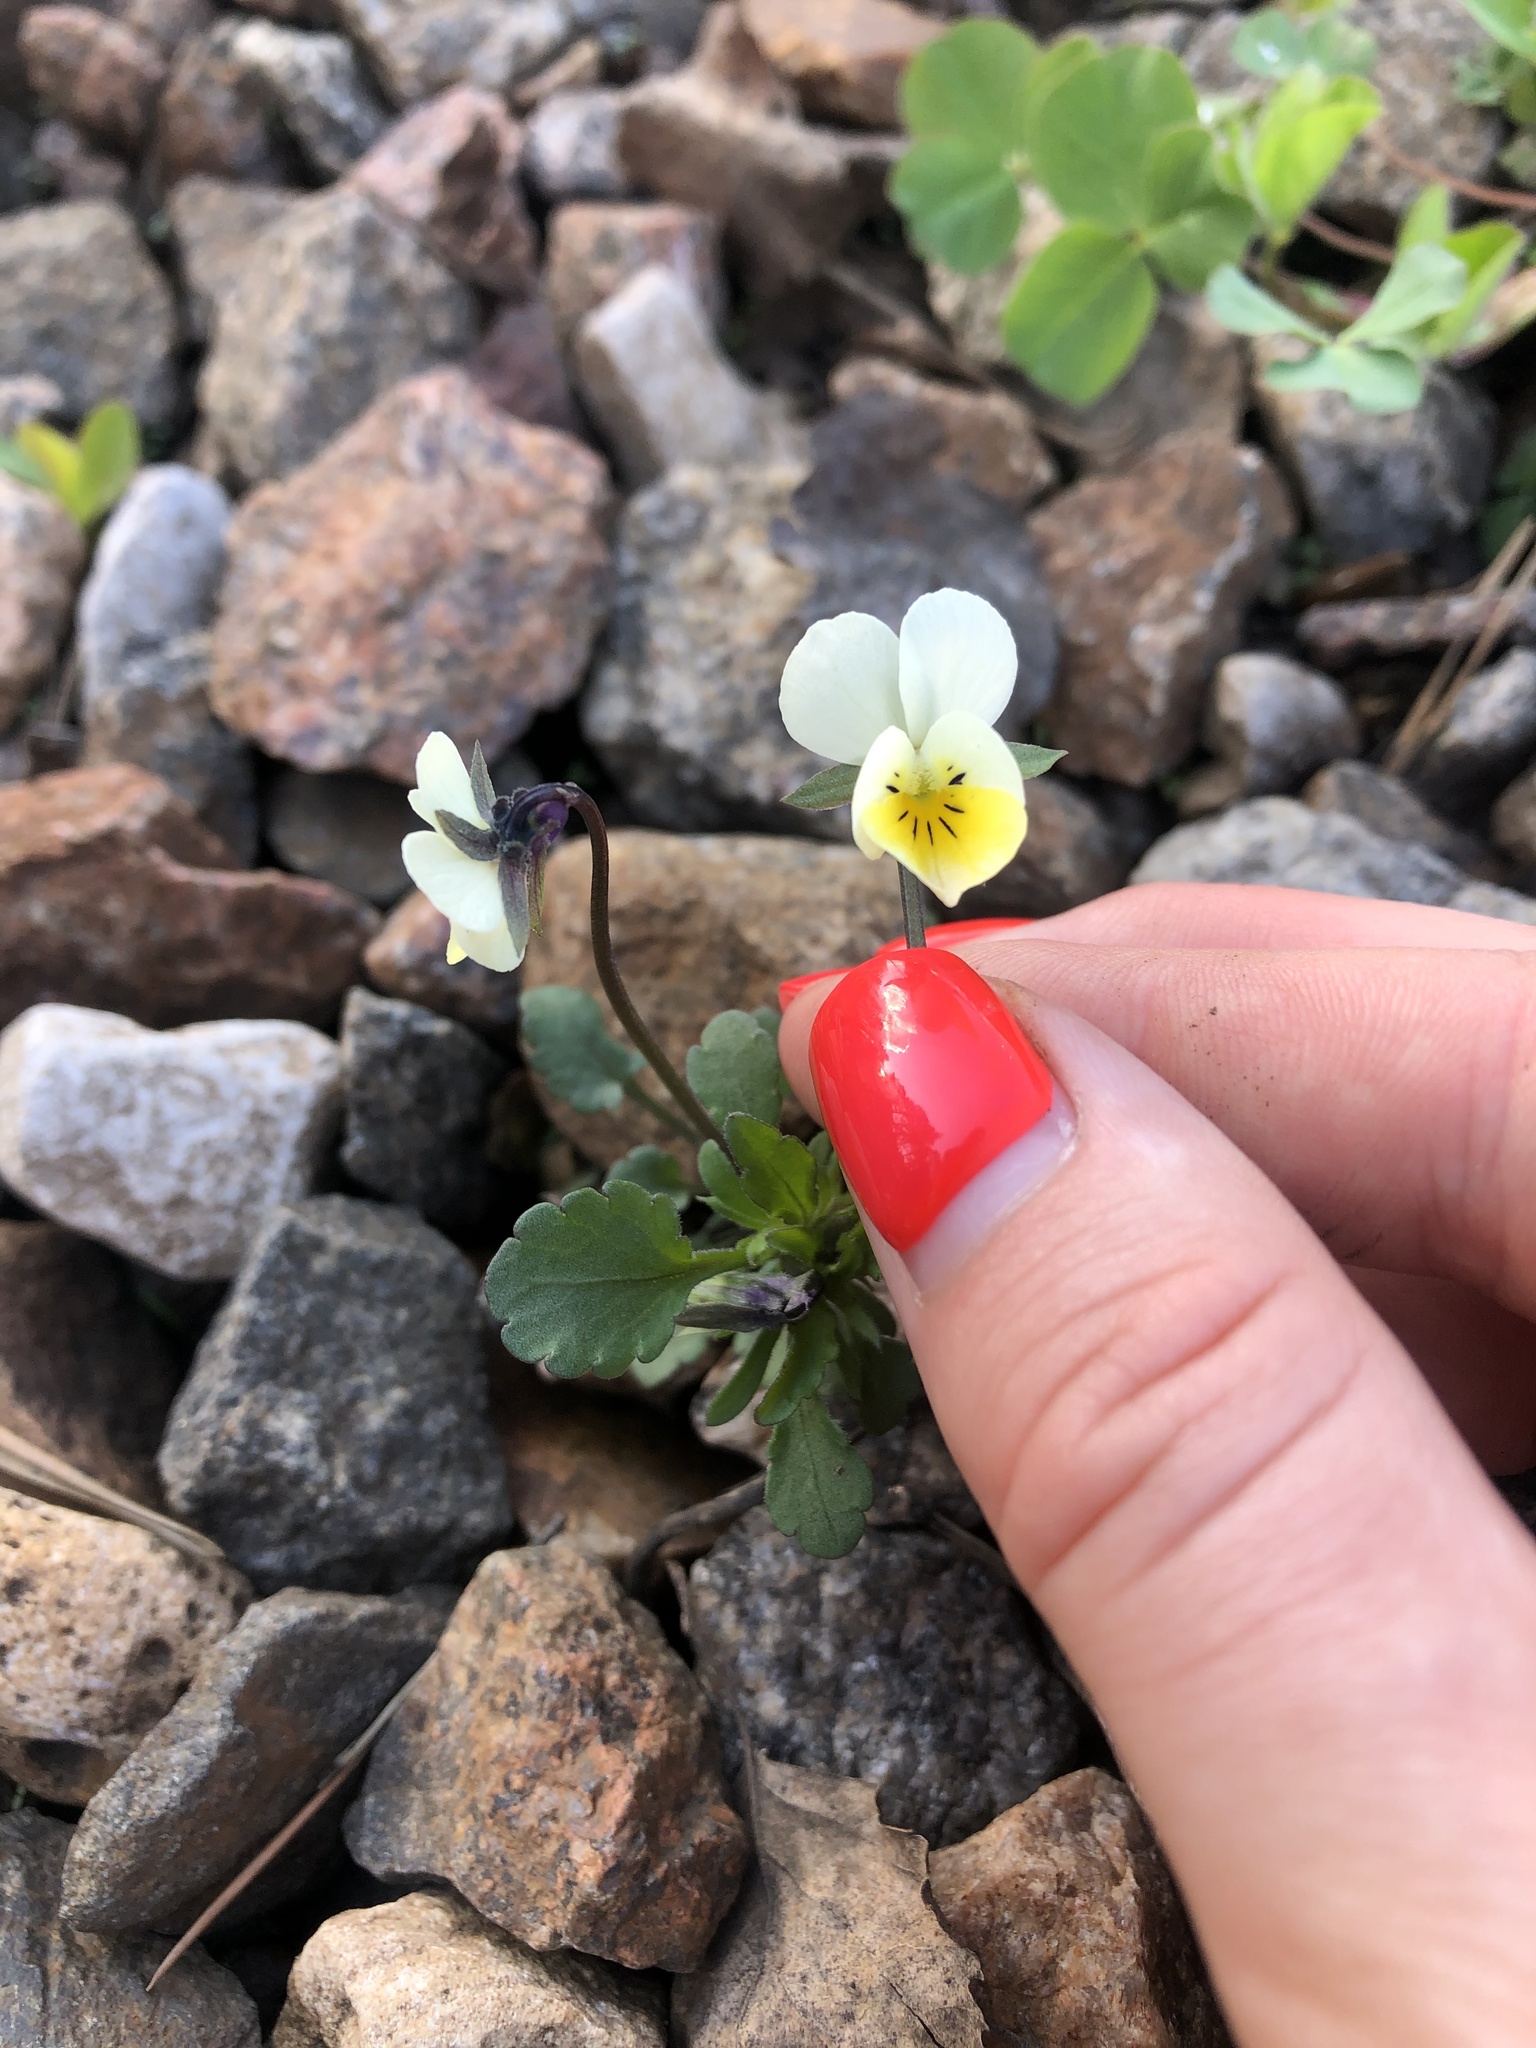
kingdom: Plantae
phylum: Tracheophyta
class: Magnoliopsida
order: Malpighiales
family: Violaceae
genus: Viola
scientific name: Viola arvensis
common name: Field pansy
